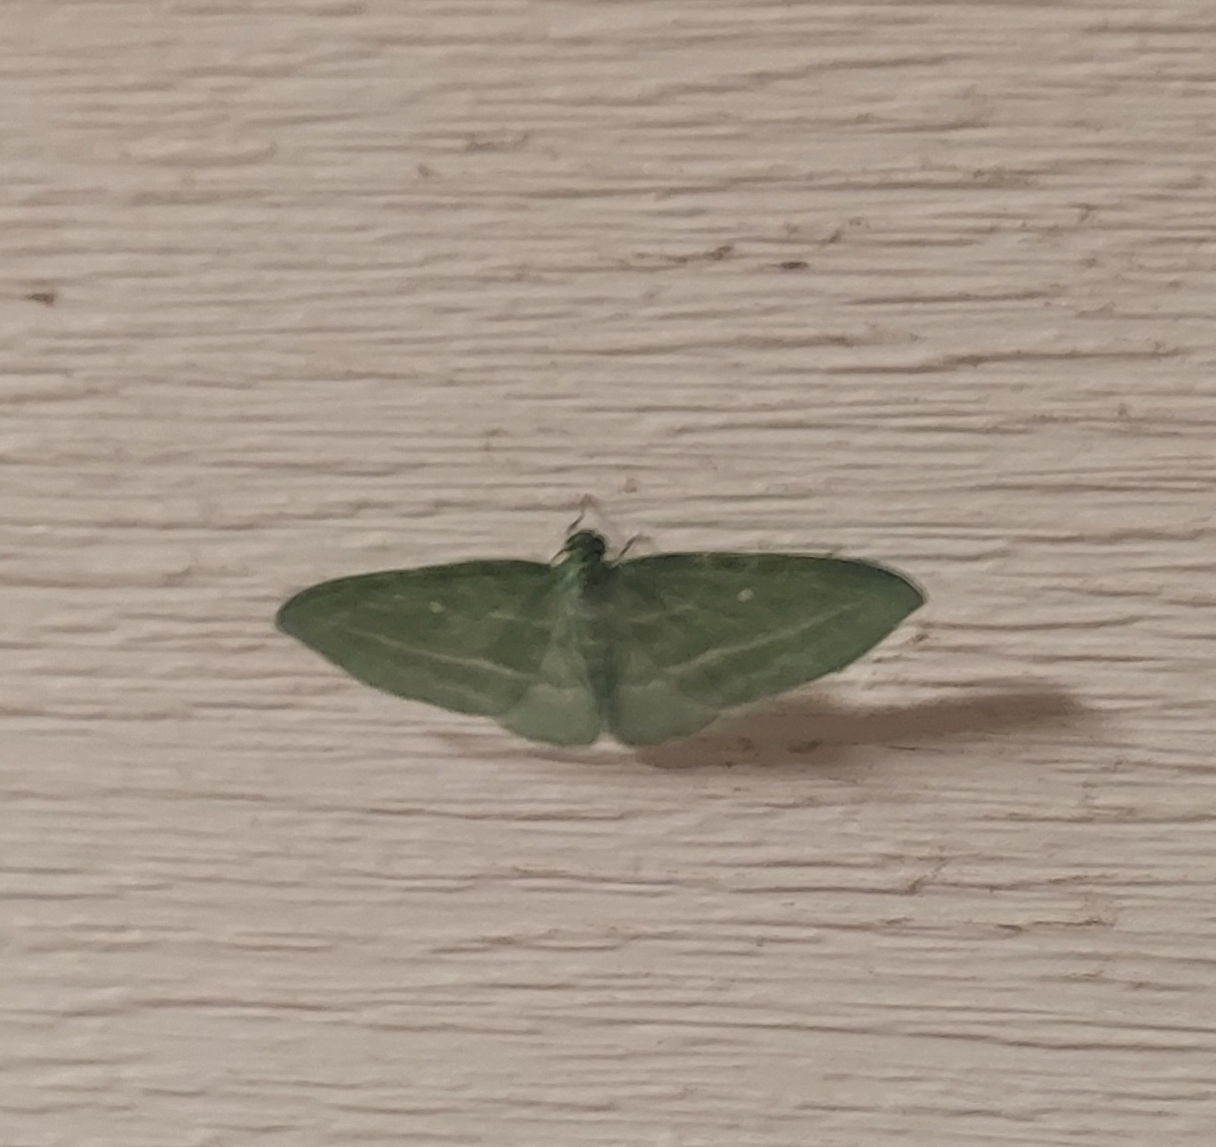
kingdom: Animalia
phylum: Arthropoda
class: Insecta
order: Lepidoptera
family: Geometridae
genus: Dyspteris
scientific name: Dyspteris abortivaria
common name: Bad-wing
